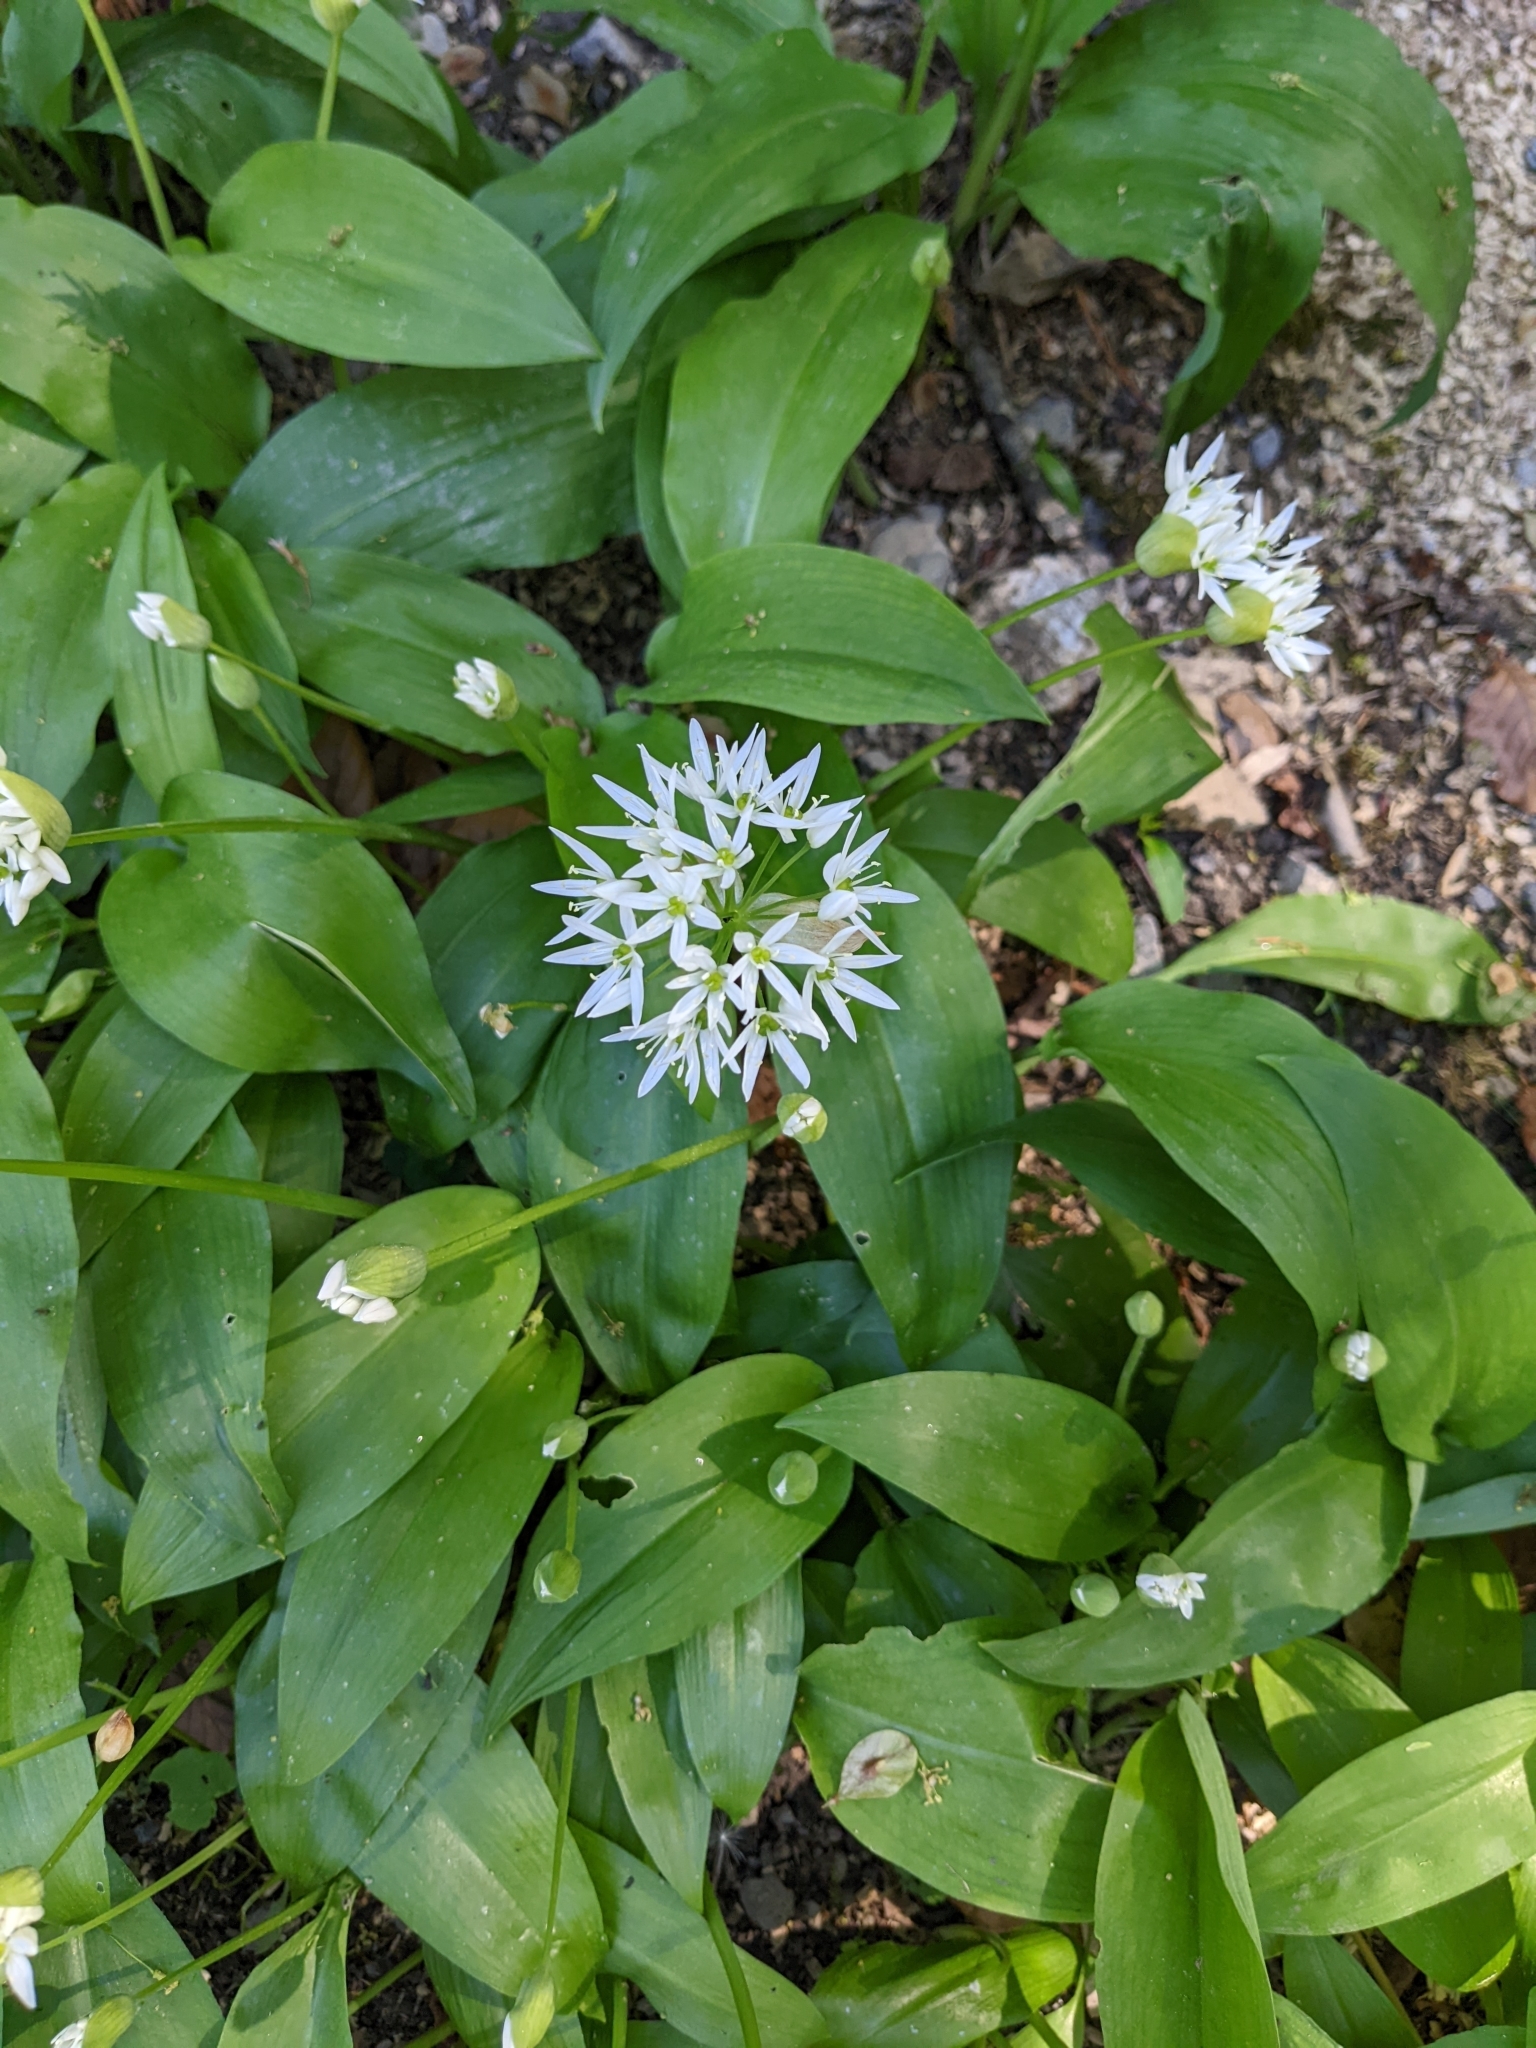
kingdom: Plantae
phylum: Tracheophyta
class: Liliopsida
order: Asparagales
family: Amaryllidaceae
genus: Allium
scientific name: Allium ursinum
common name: Ramsons
